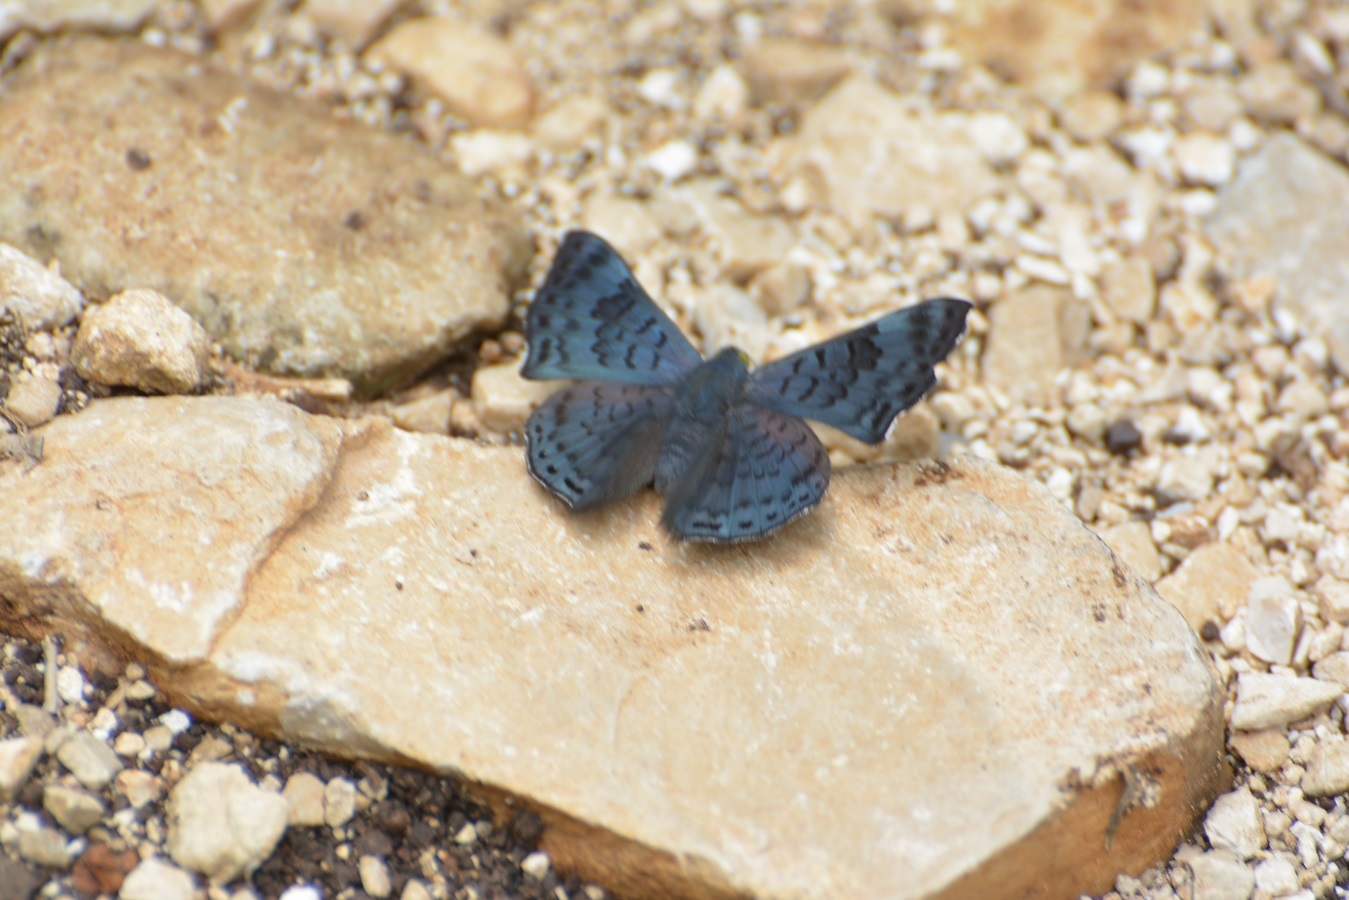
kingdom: Animalia
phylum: Arthropoda
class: Insecta
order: Lepidoptera
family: Riodinidae
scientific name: Riodinidae
